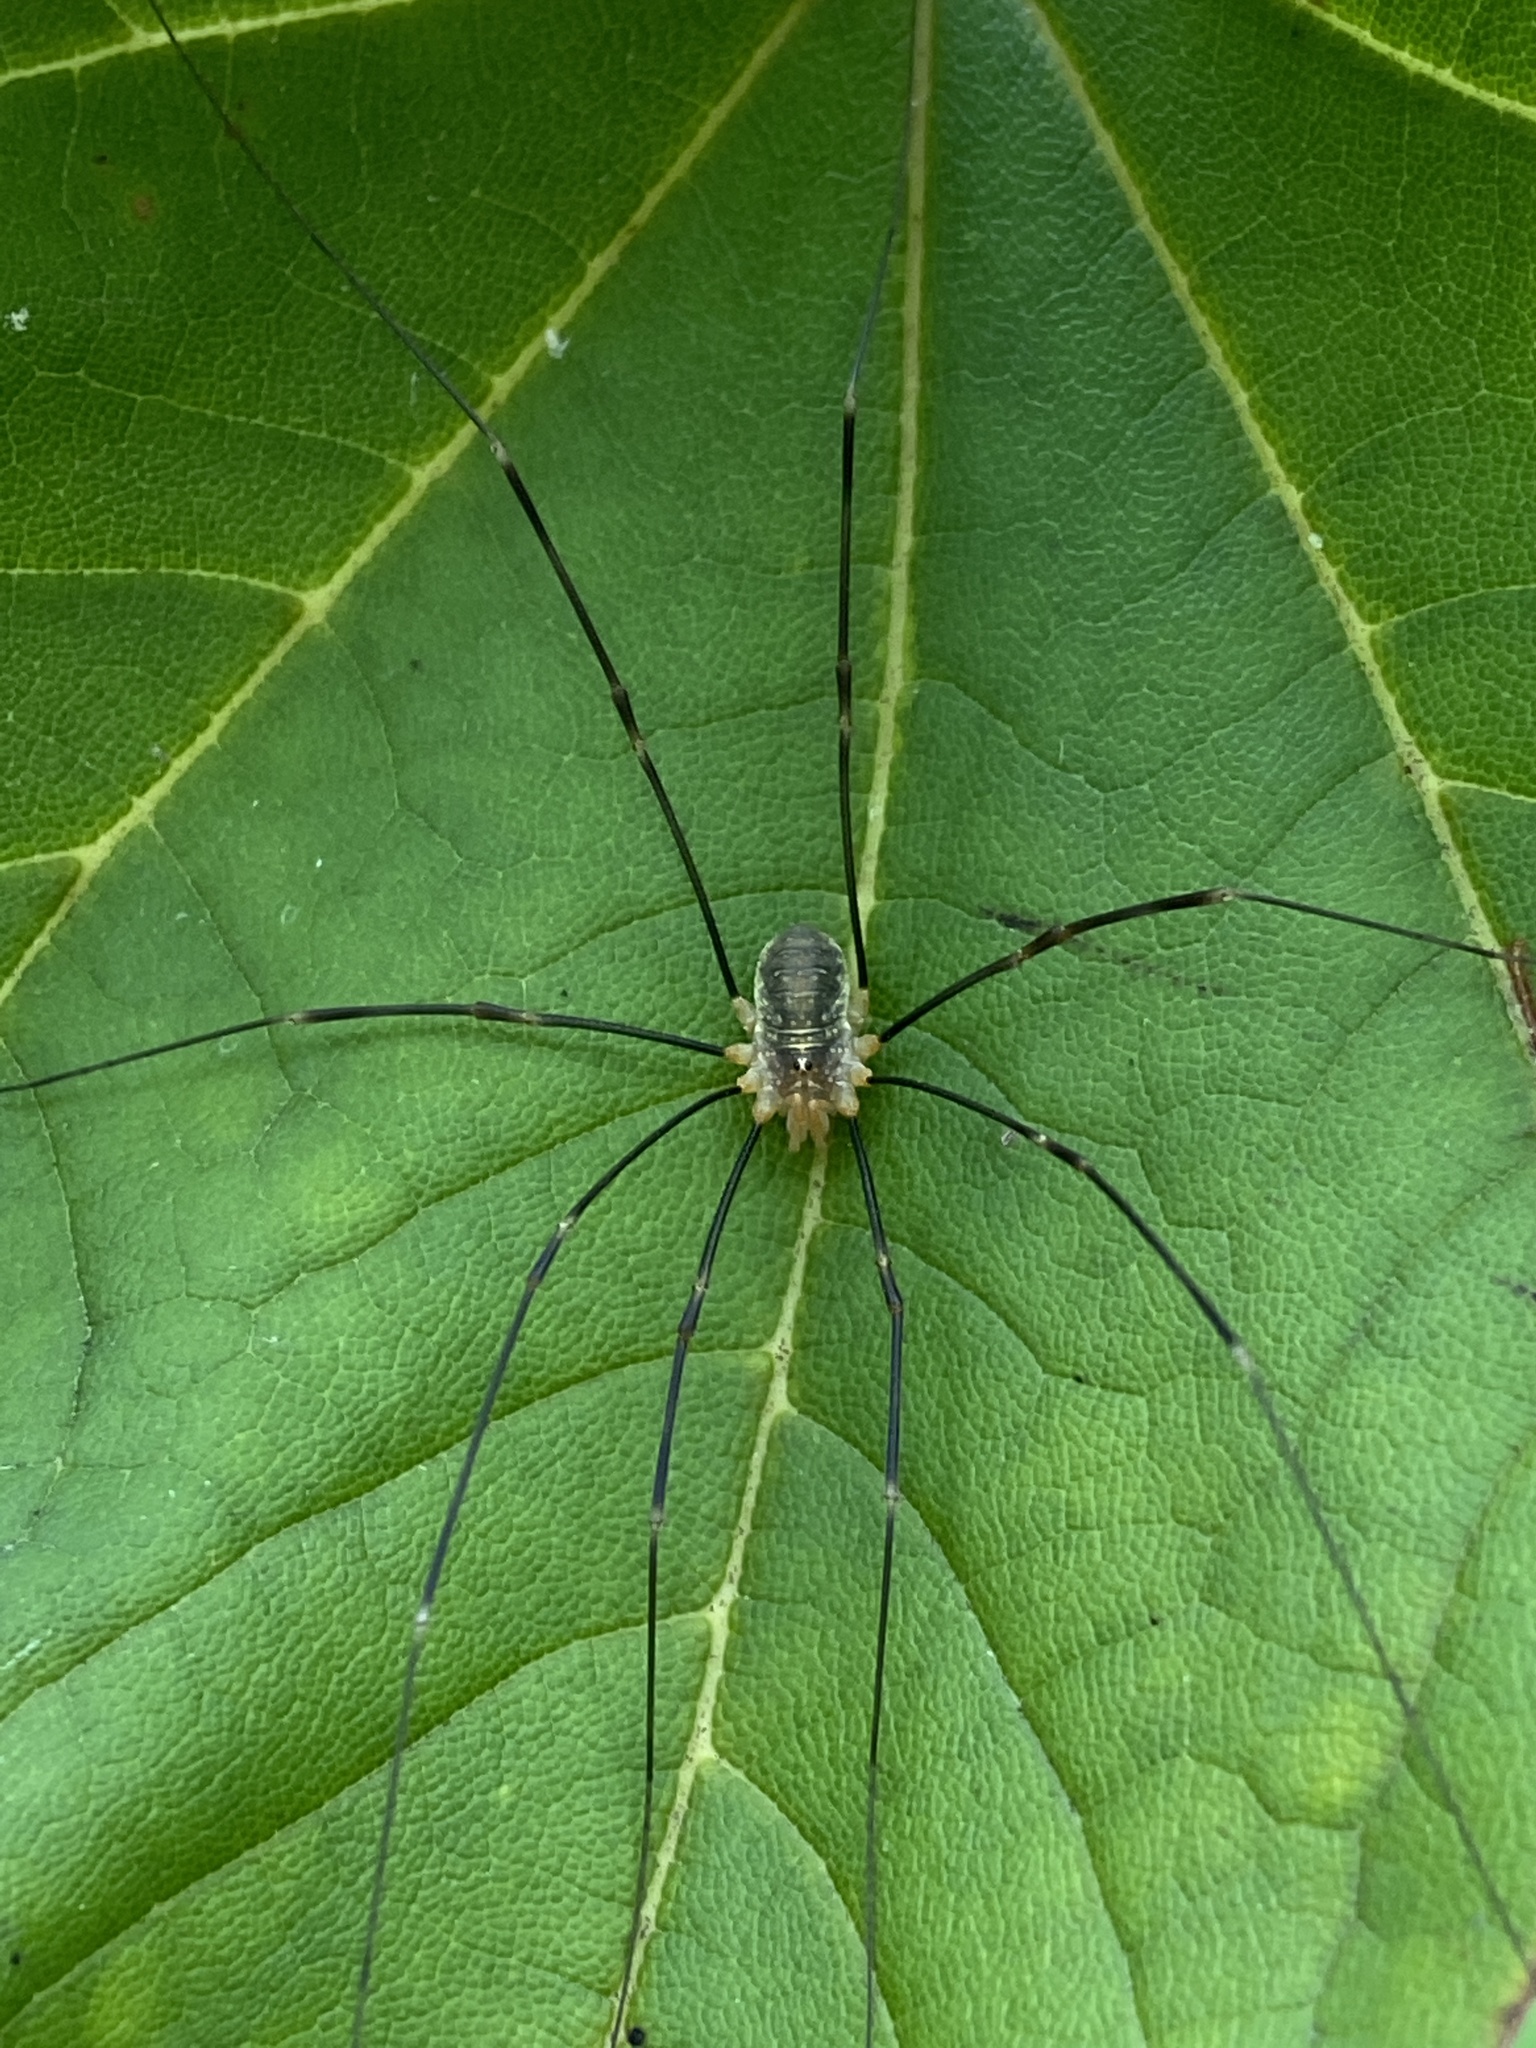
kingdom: Animalia
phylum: Arthropoda
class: Arachnida
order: Opiliones
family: Phalangiidae
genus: Opilio
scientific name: Opilio canestrinii
